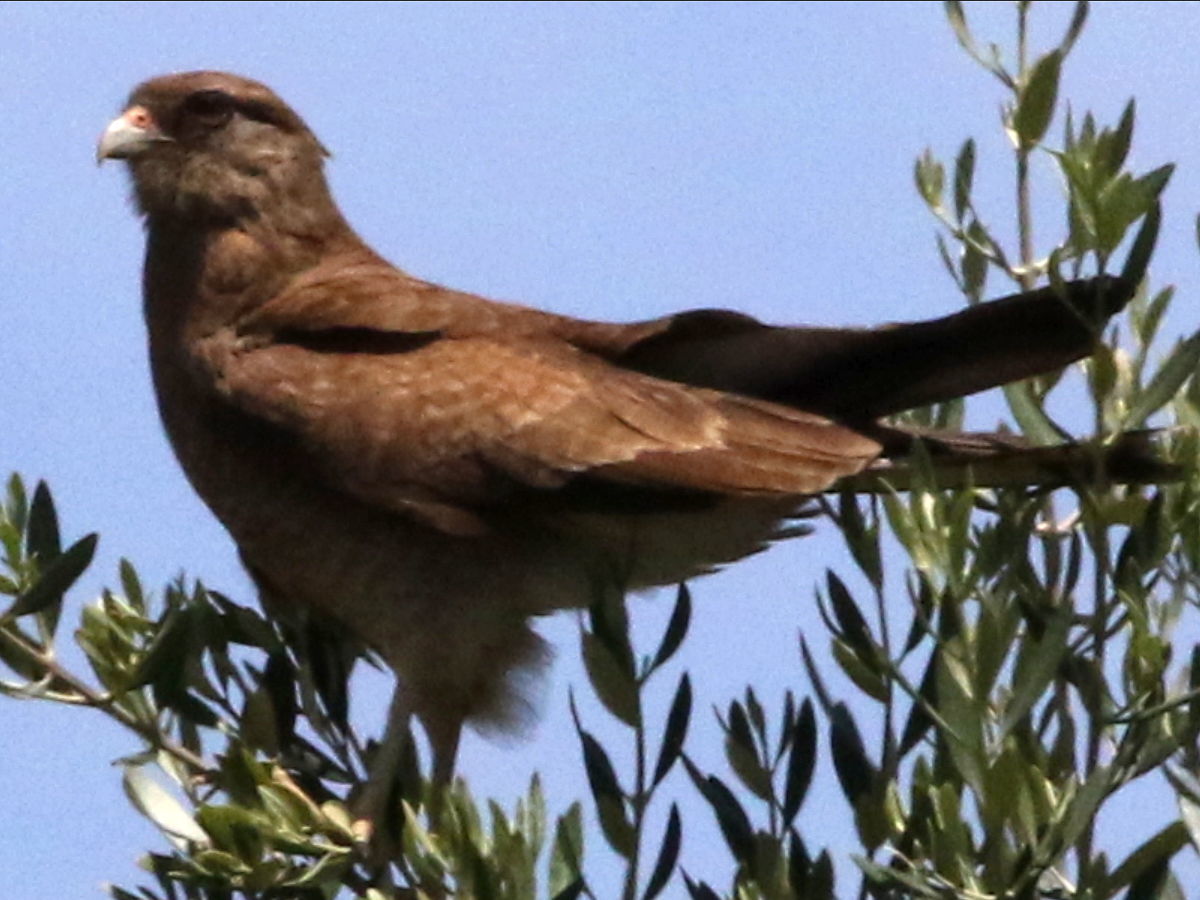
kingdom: Animalia
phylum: Chordata
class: Aves
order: Falconiformes
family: Falconidae
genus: Daptrius
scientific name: Daptrius
